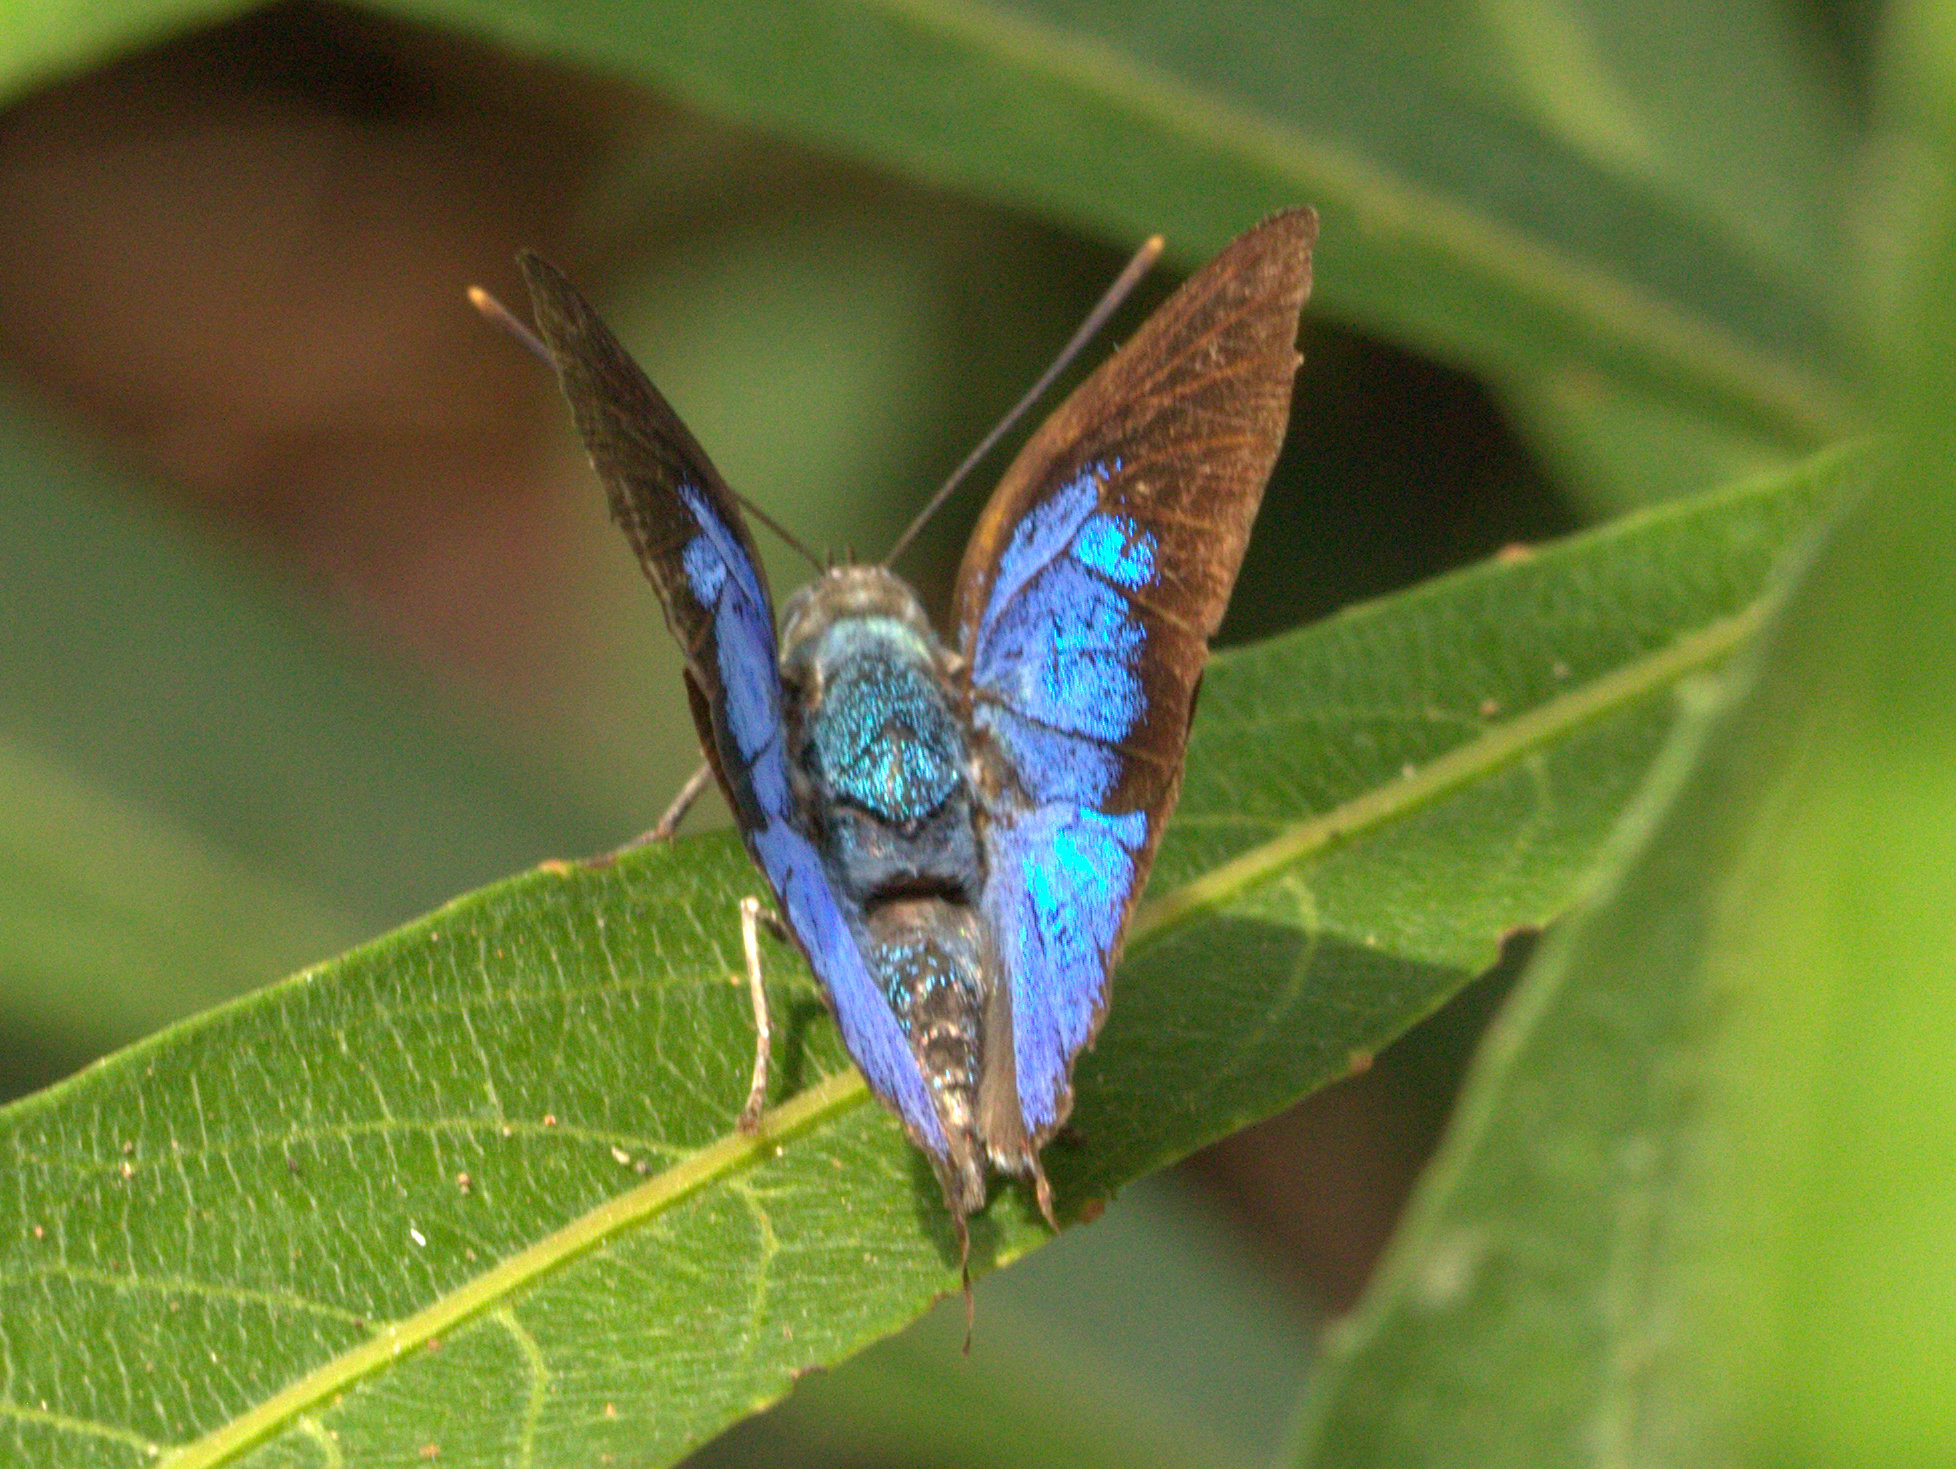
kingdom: Animalia
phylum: Arthropoda
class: Insecta
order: Lepidoptera
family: Lycaenidae
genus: Ancema
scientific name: Ancema blanka
